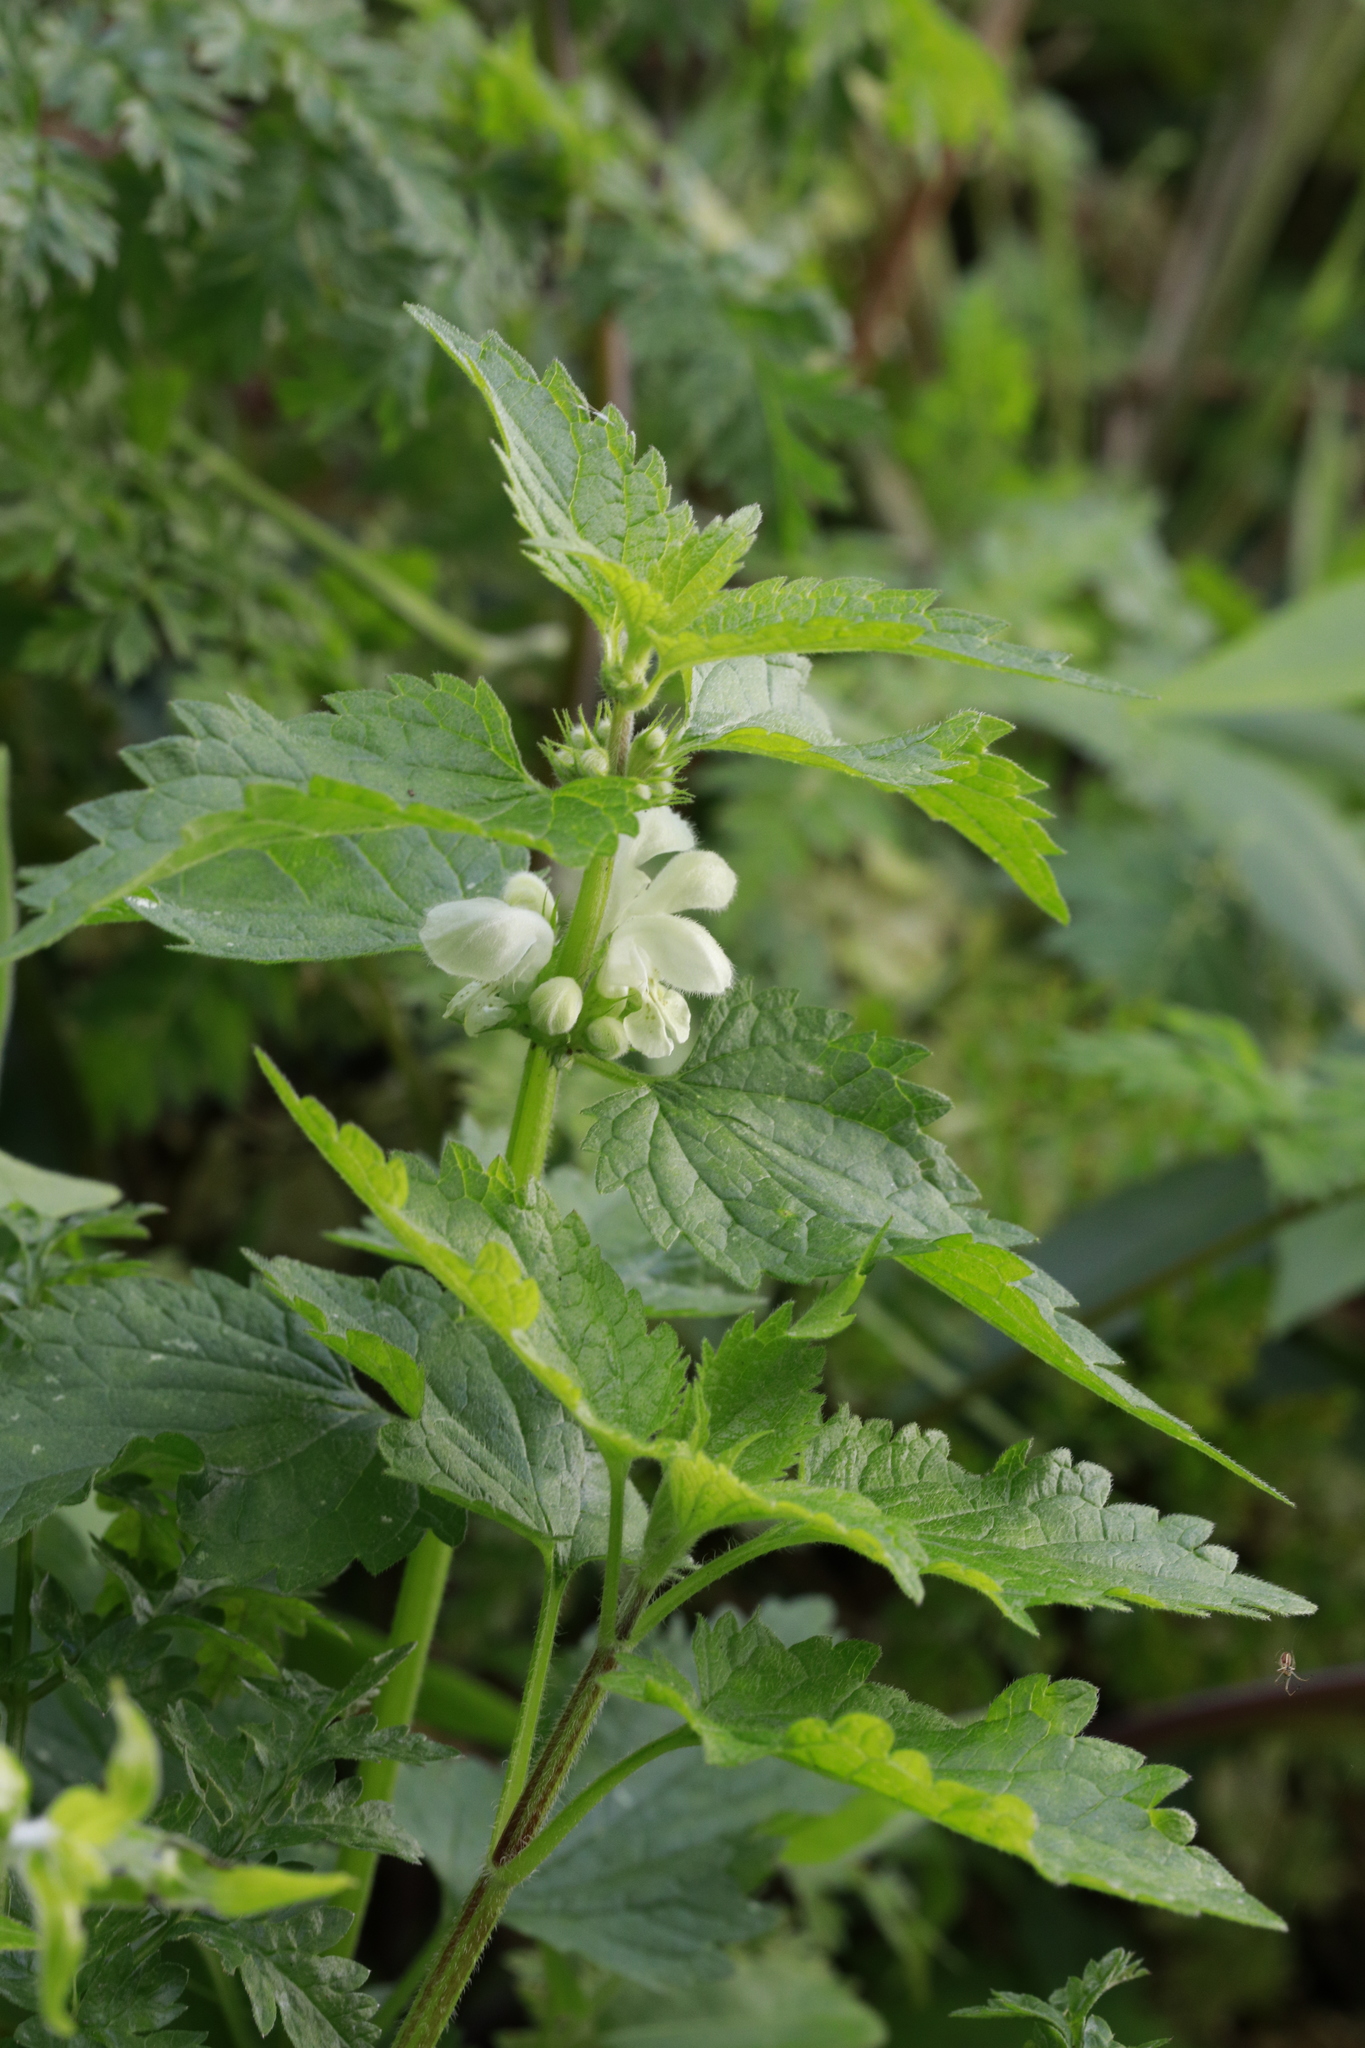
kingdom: Plantae
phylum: Tracheophyta
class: Magnoliopsida
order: Lamiales
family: Lamiaceae
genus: Lamium
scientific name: Lamium album
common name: White dead-nettle
